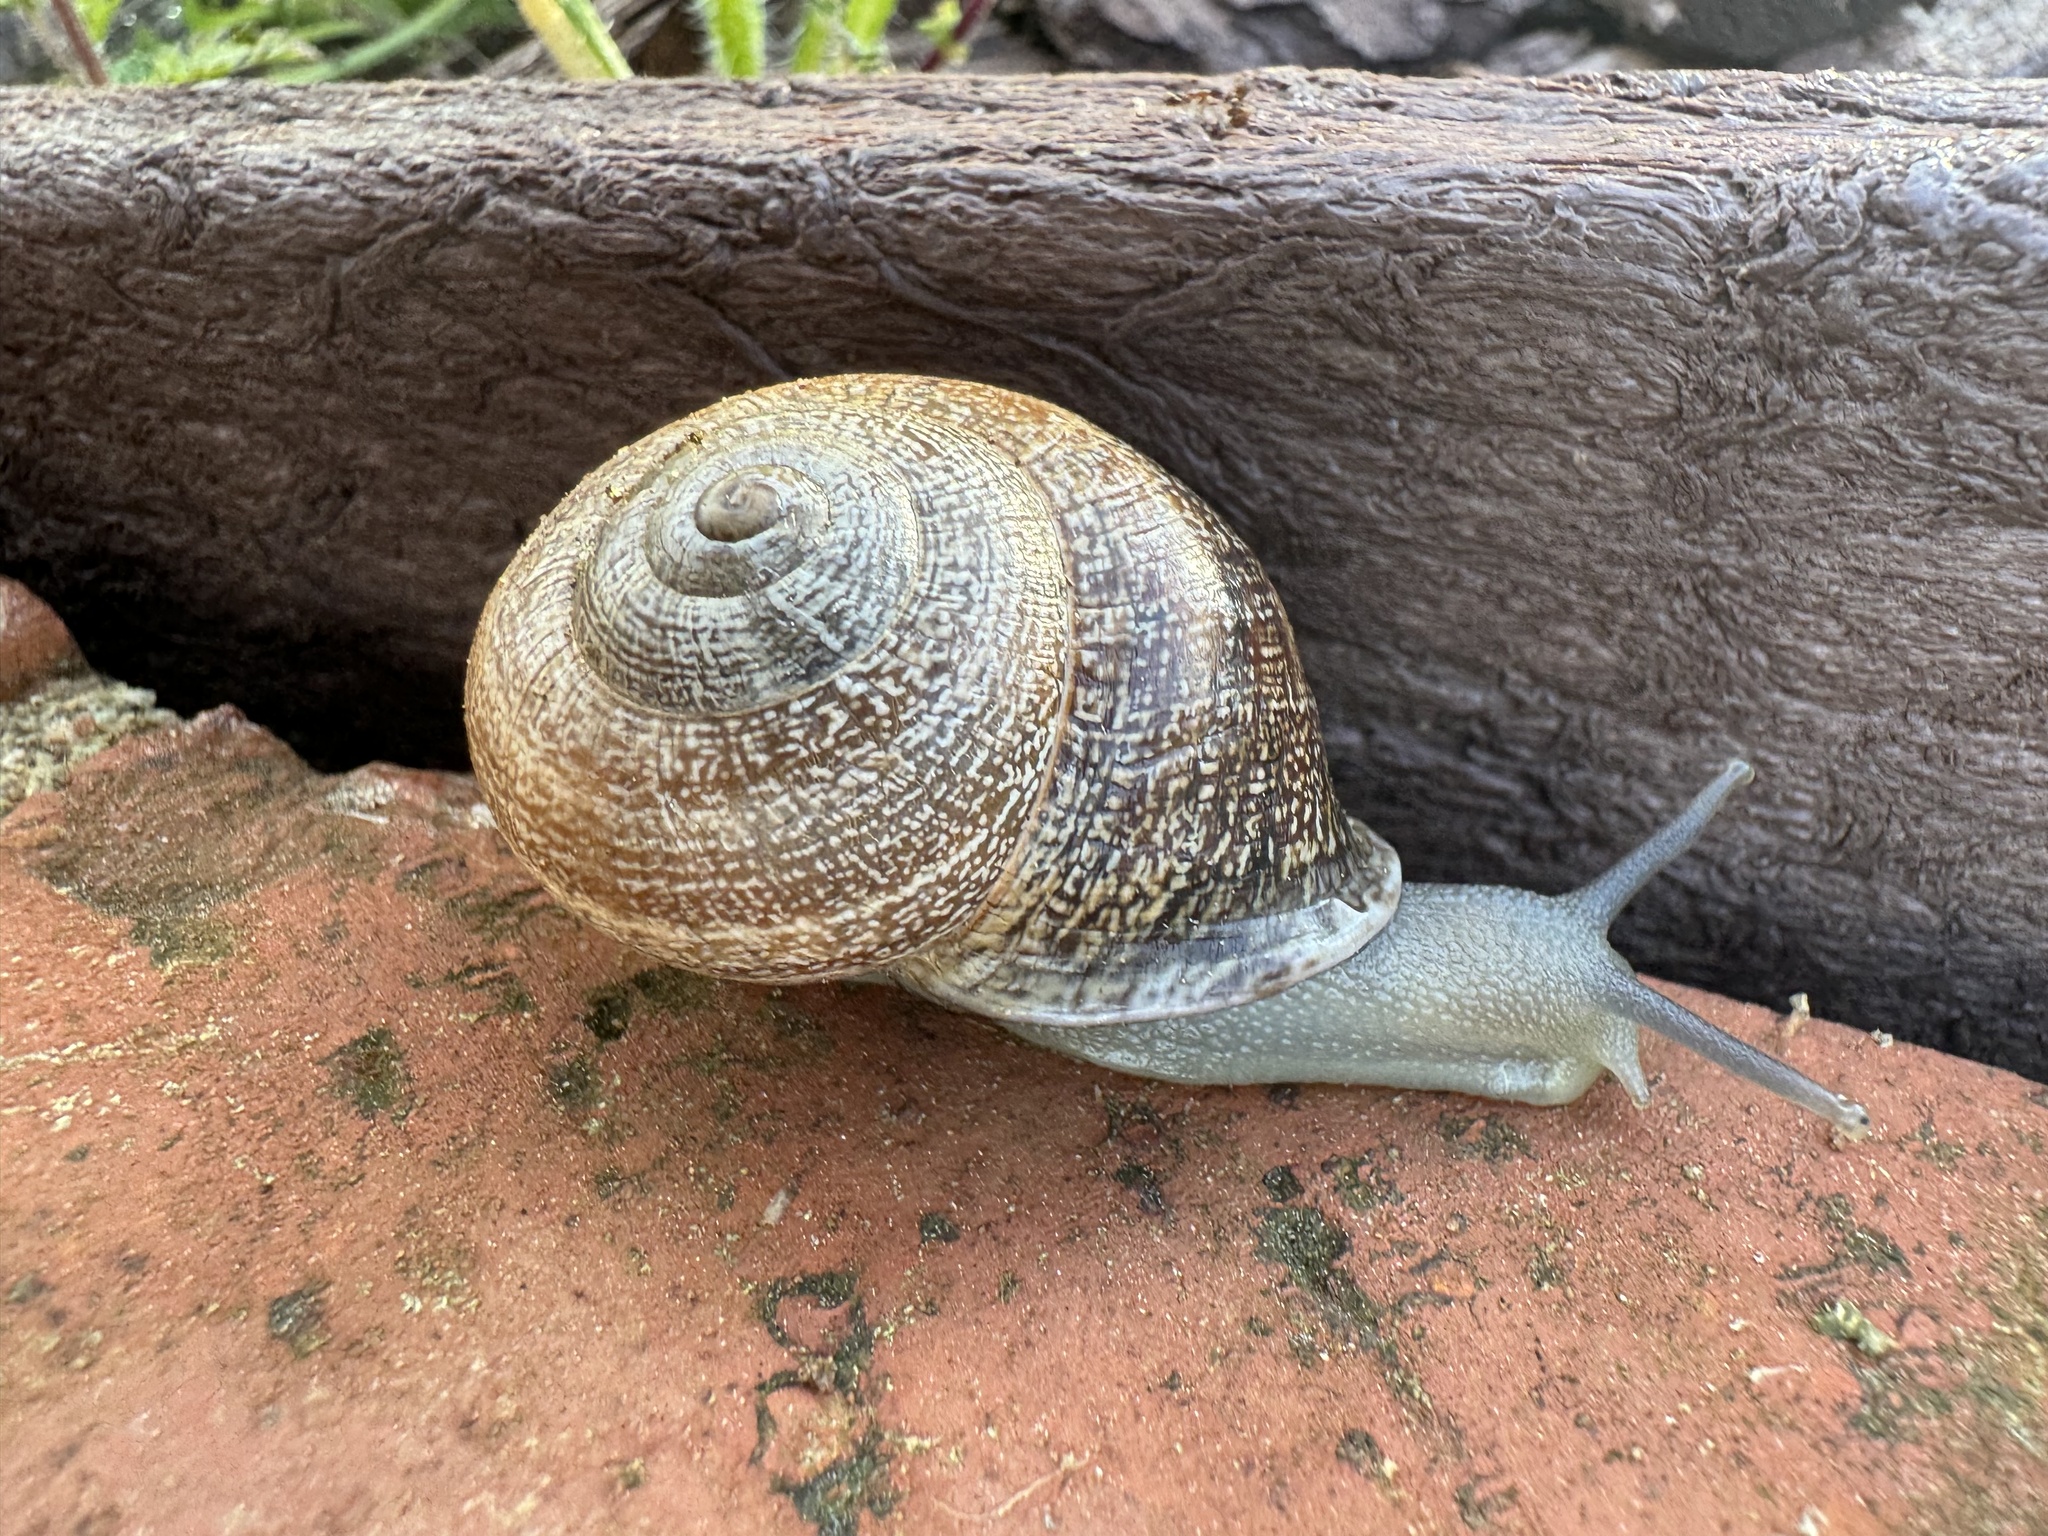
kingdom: Animalia
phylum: Mollusca
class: Gastropoda
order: Stylommatophora
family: Helicidae
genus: Otala
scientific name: Otala lactea
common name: Milk snail
